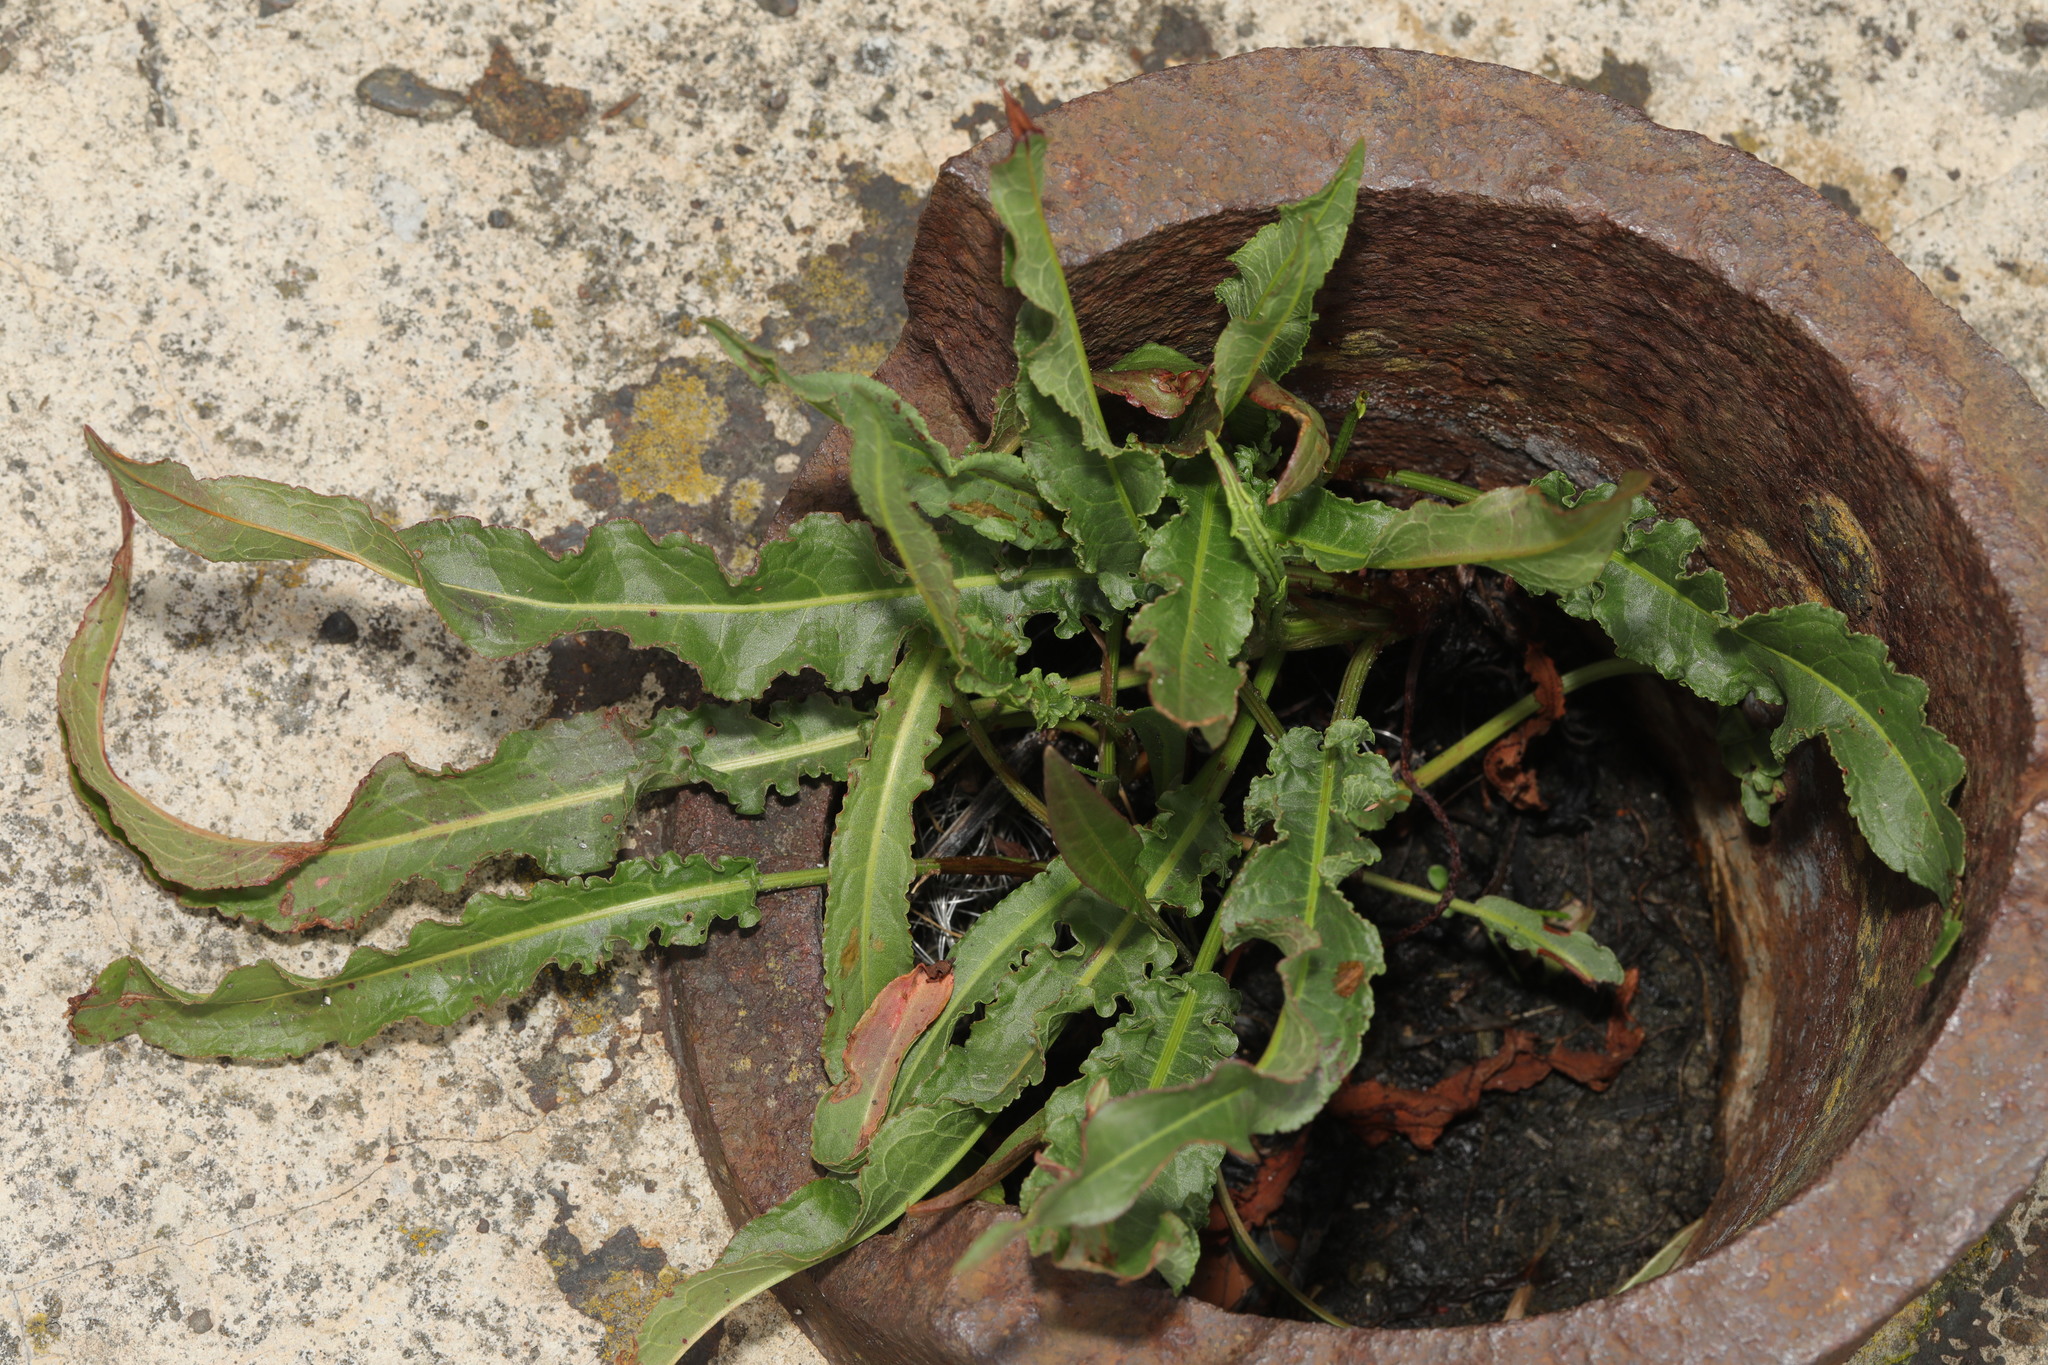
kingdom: Plantae
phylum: Tracheophyta
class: Magnoliopsida
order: Caryophyllales
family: Polygonaceae
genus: Rumex
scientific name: Rumex crispus
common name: Curled dock
